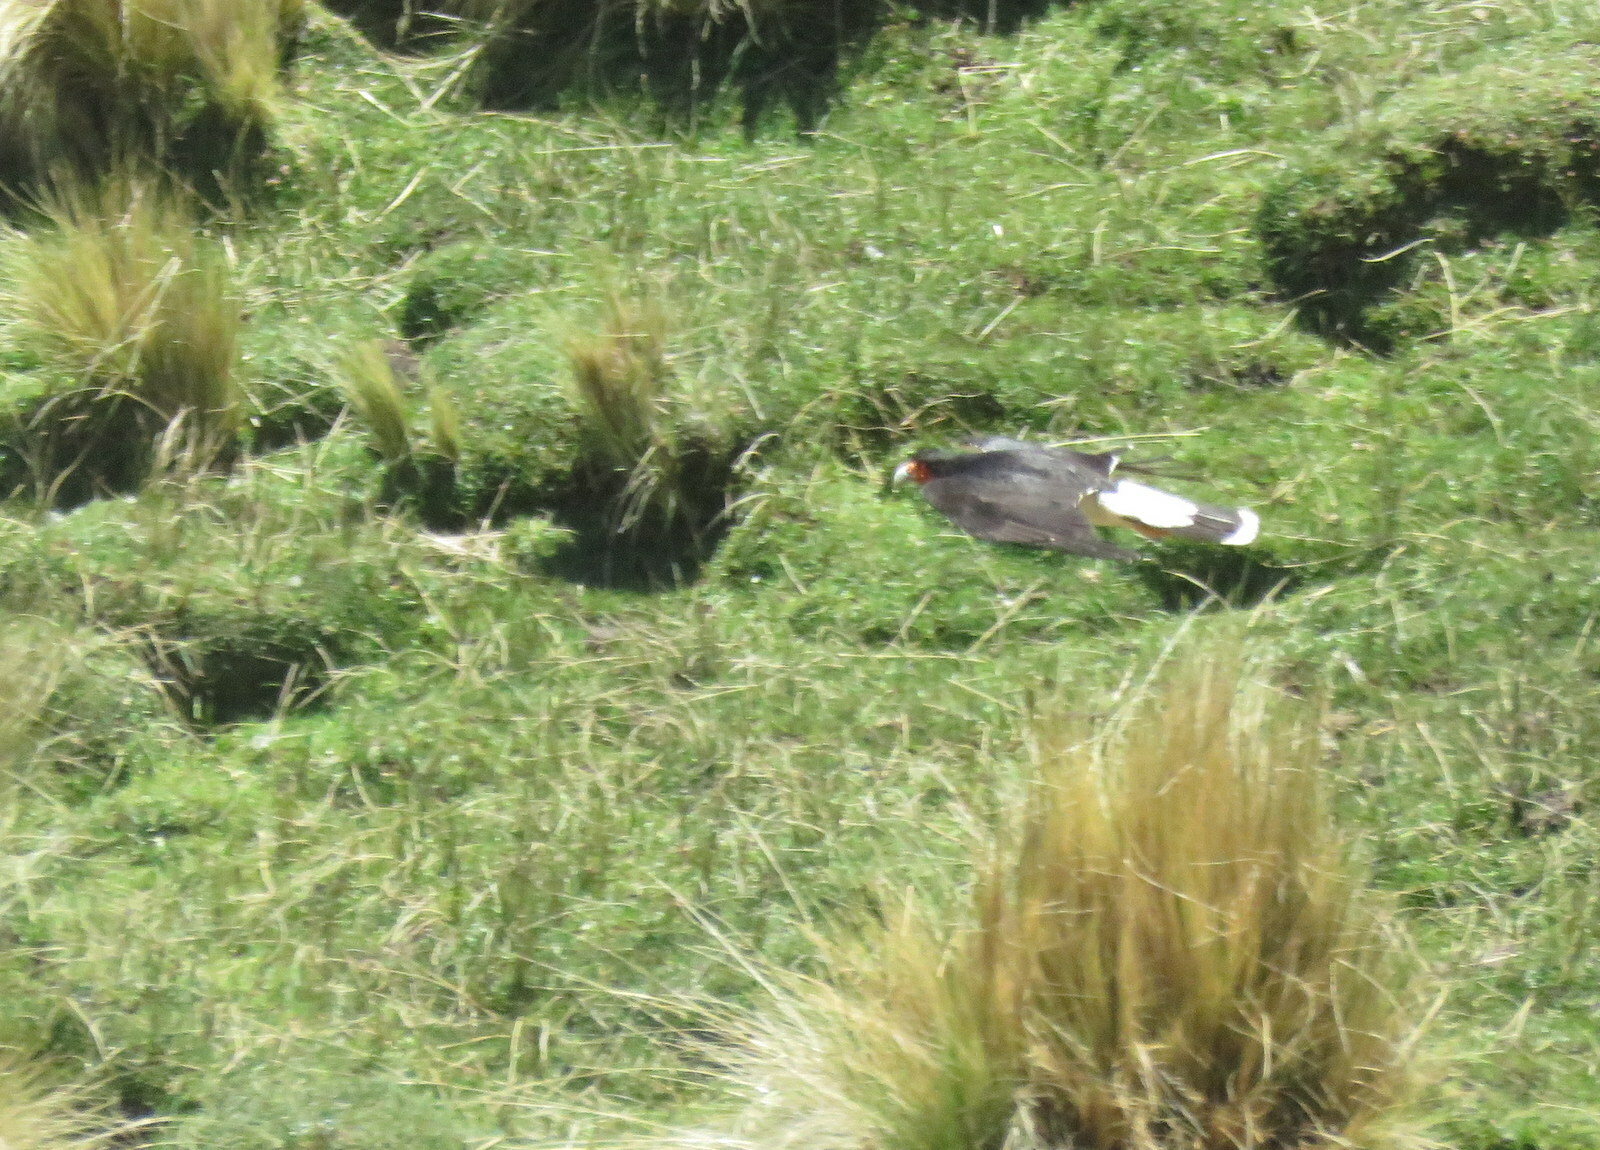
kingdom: Animalia
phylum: Chordata
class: Aves
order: Falconiformes
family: Falconidae
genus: Daptrius
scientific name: Daptrius
